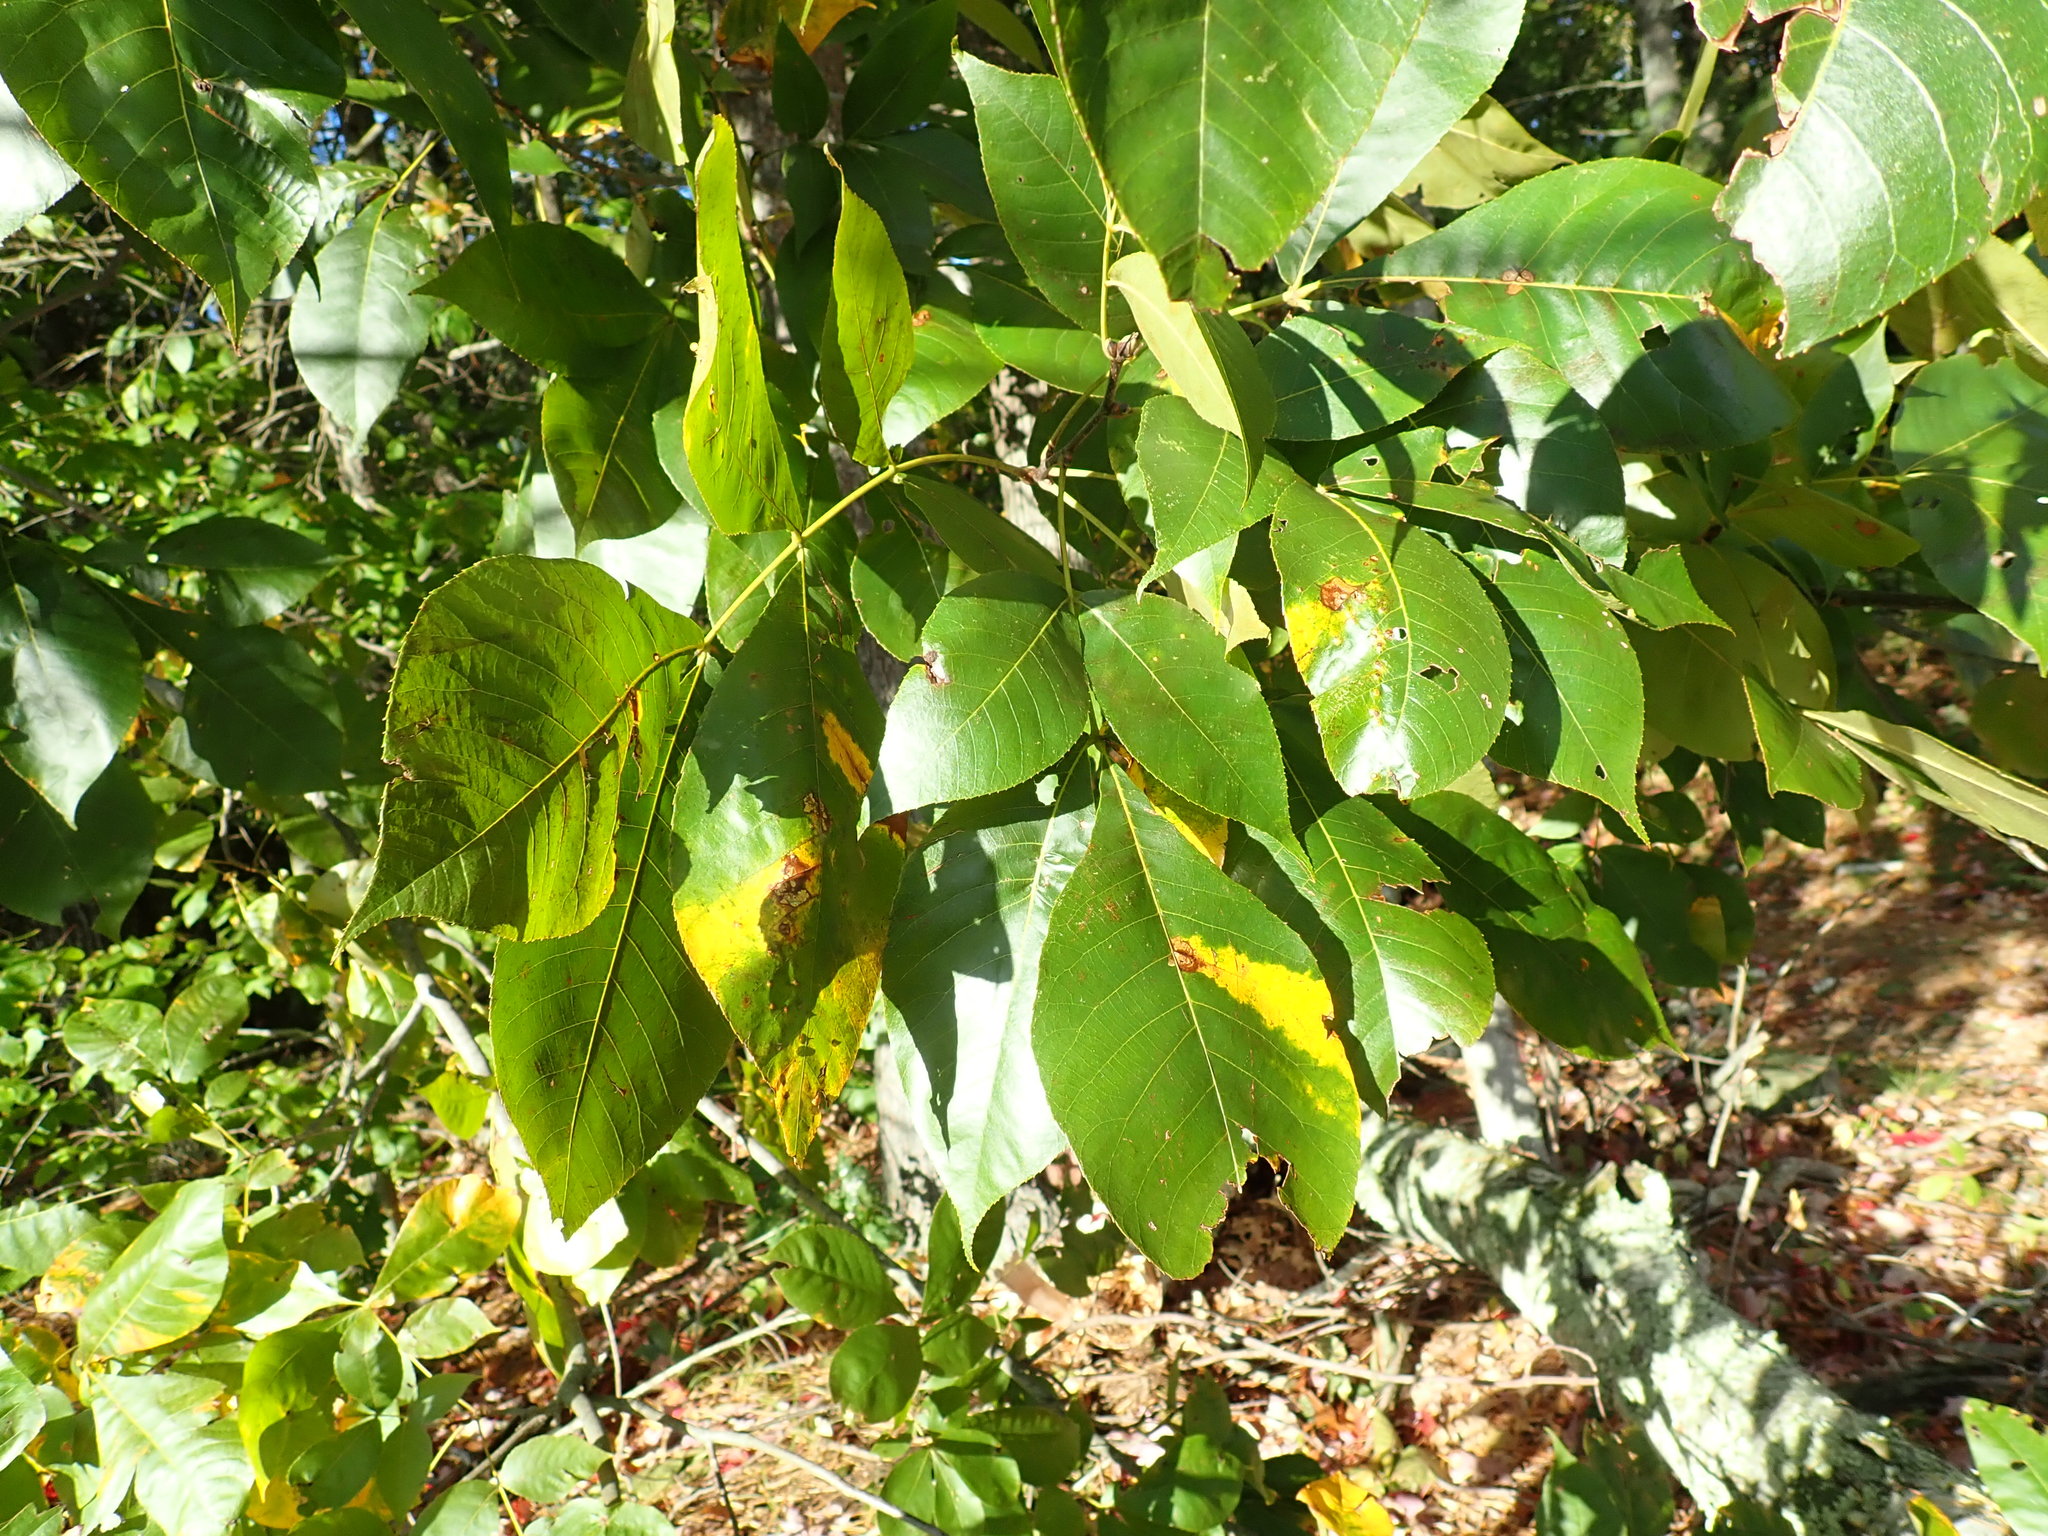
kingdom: Animalia
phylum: Arthropoda
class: Insecta
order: Diptera
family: Cecidomyiidae
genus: Caryomyia
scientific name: Caryomyia sanguinolenta
